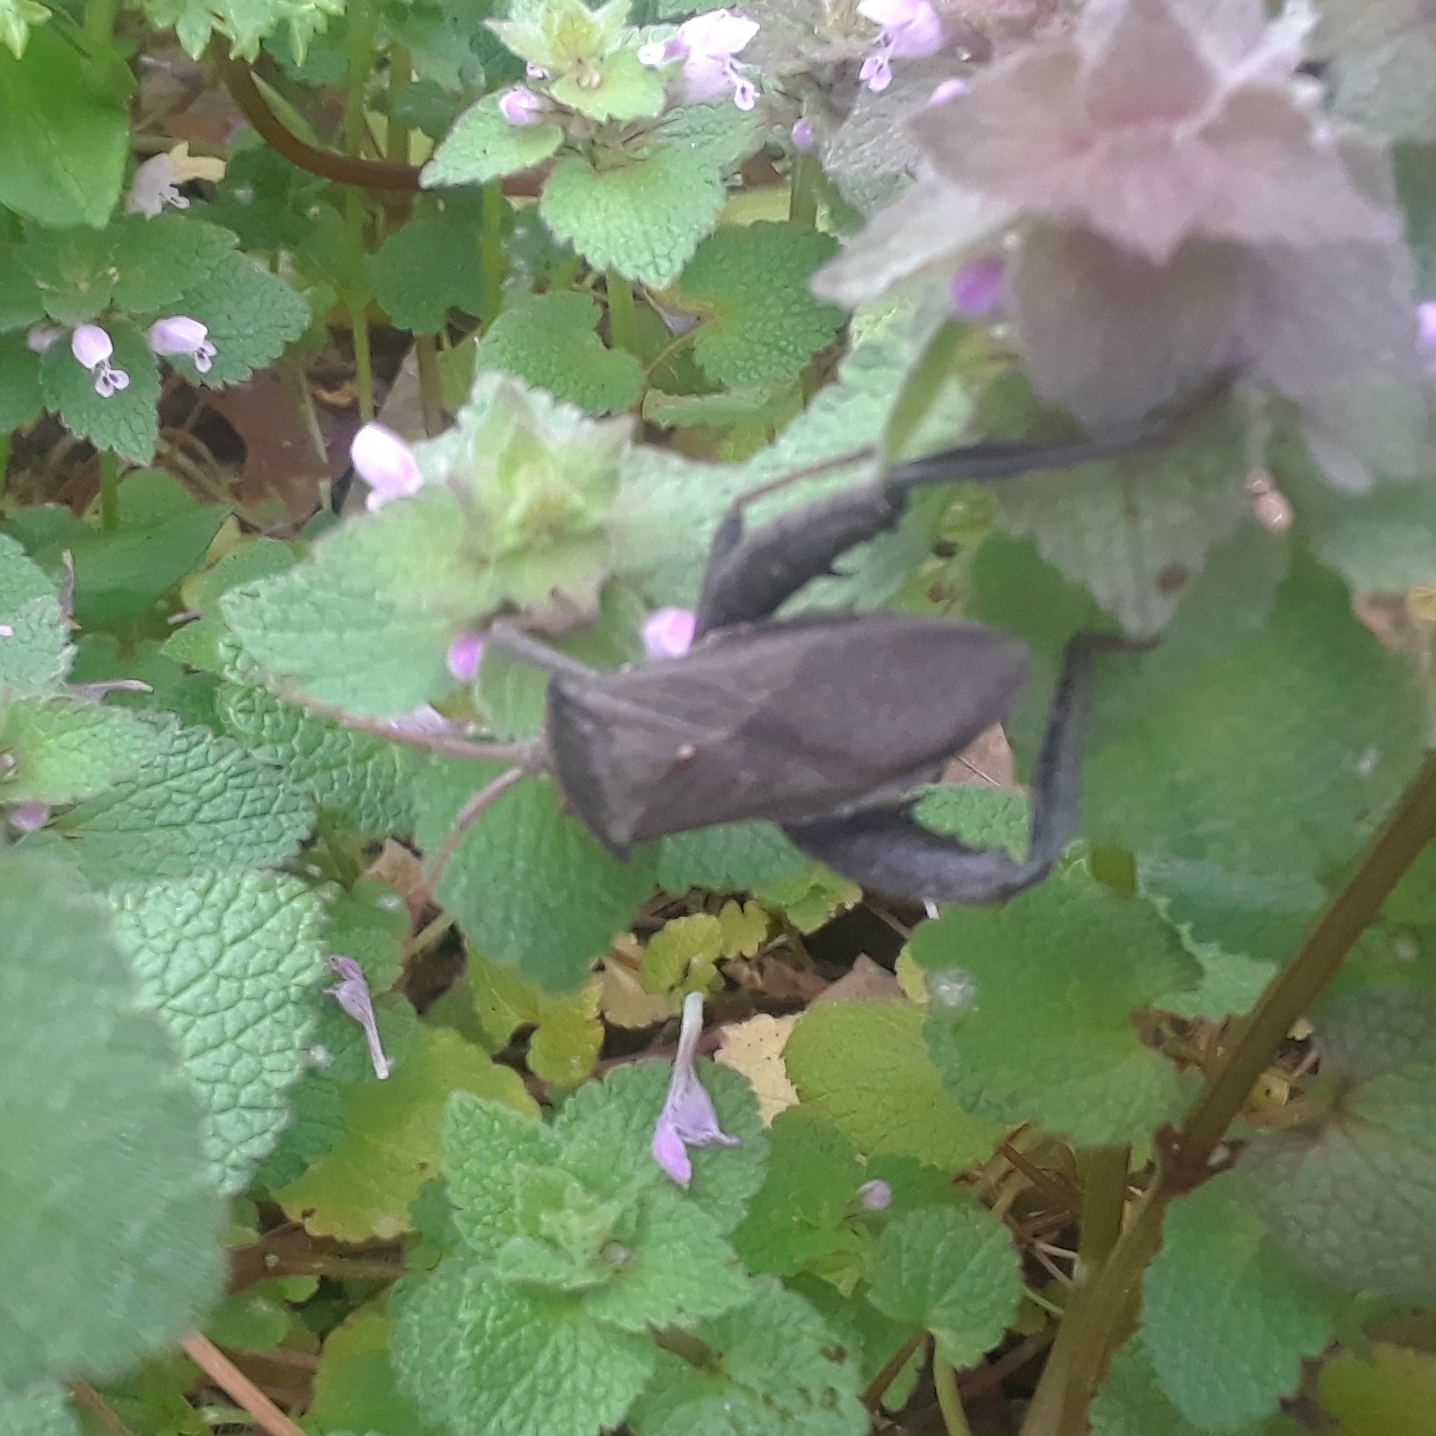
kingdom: Animalia
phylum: Arthropoda
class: Insecta
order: Hemiptera
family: Coreidae
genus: Acanthocephala
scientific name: Acanthocephala femorata
